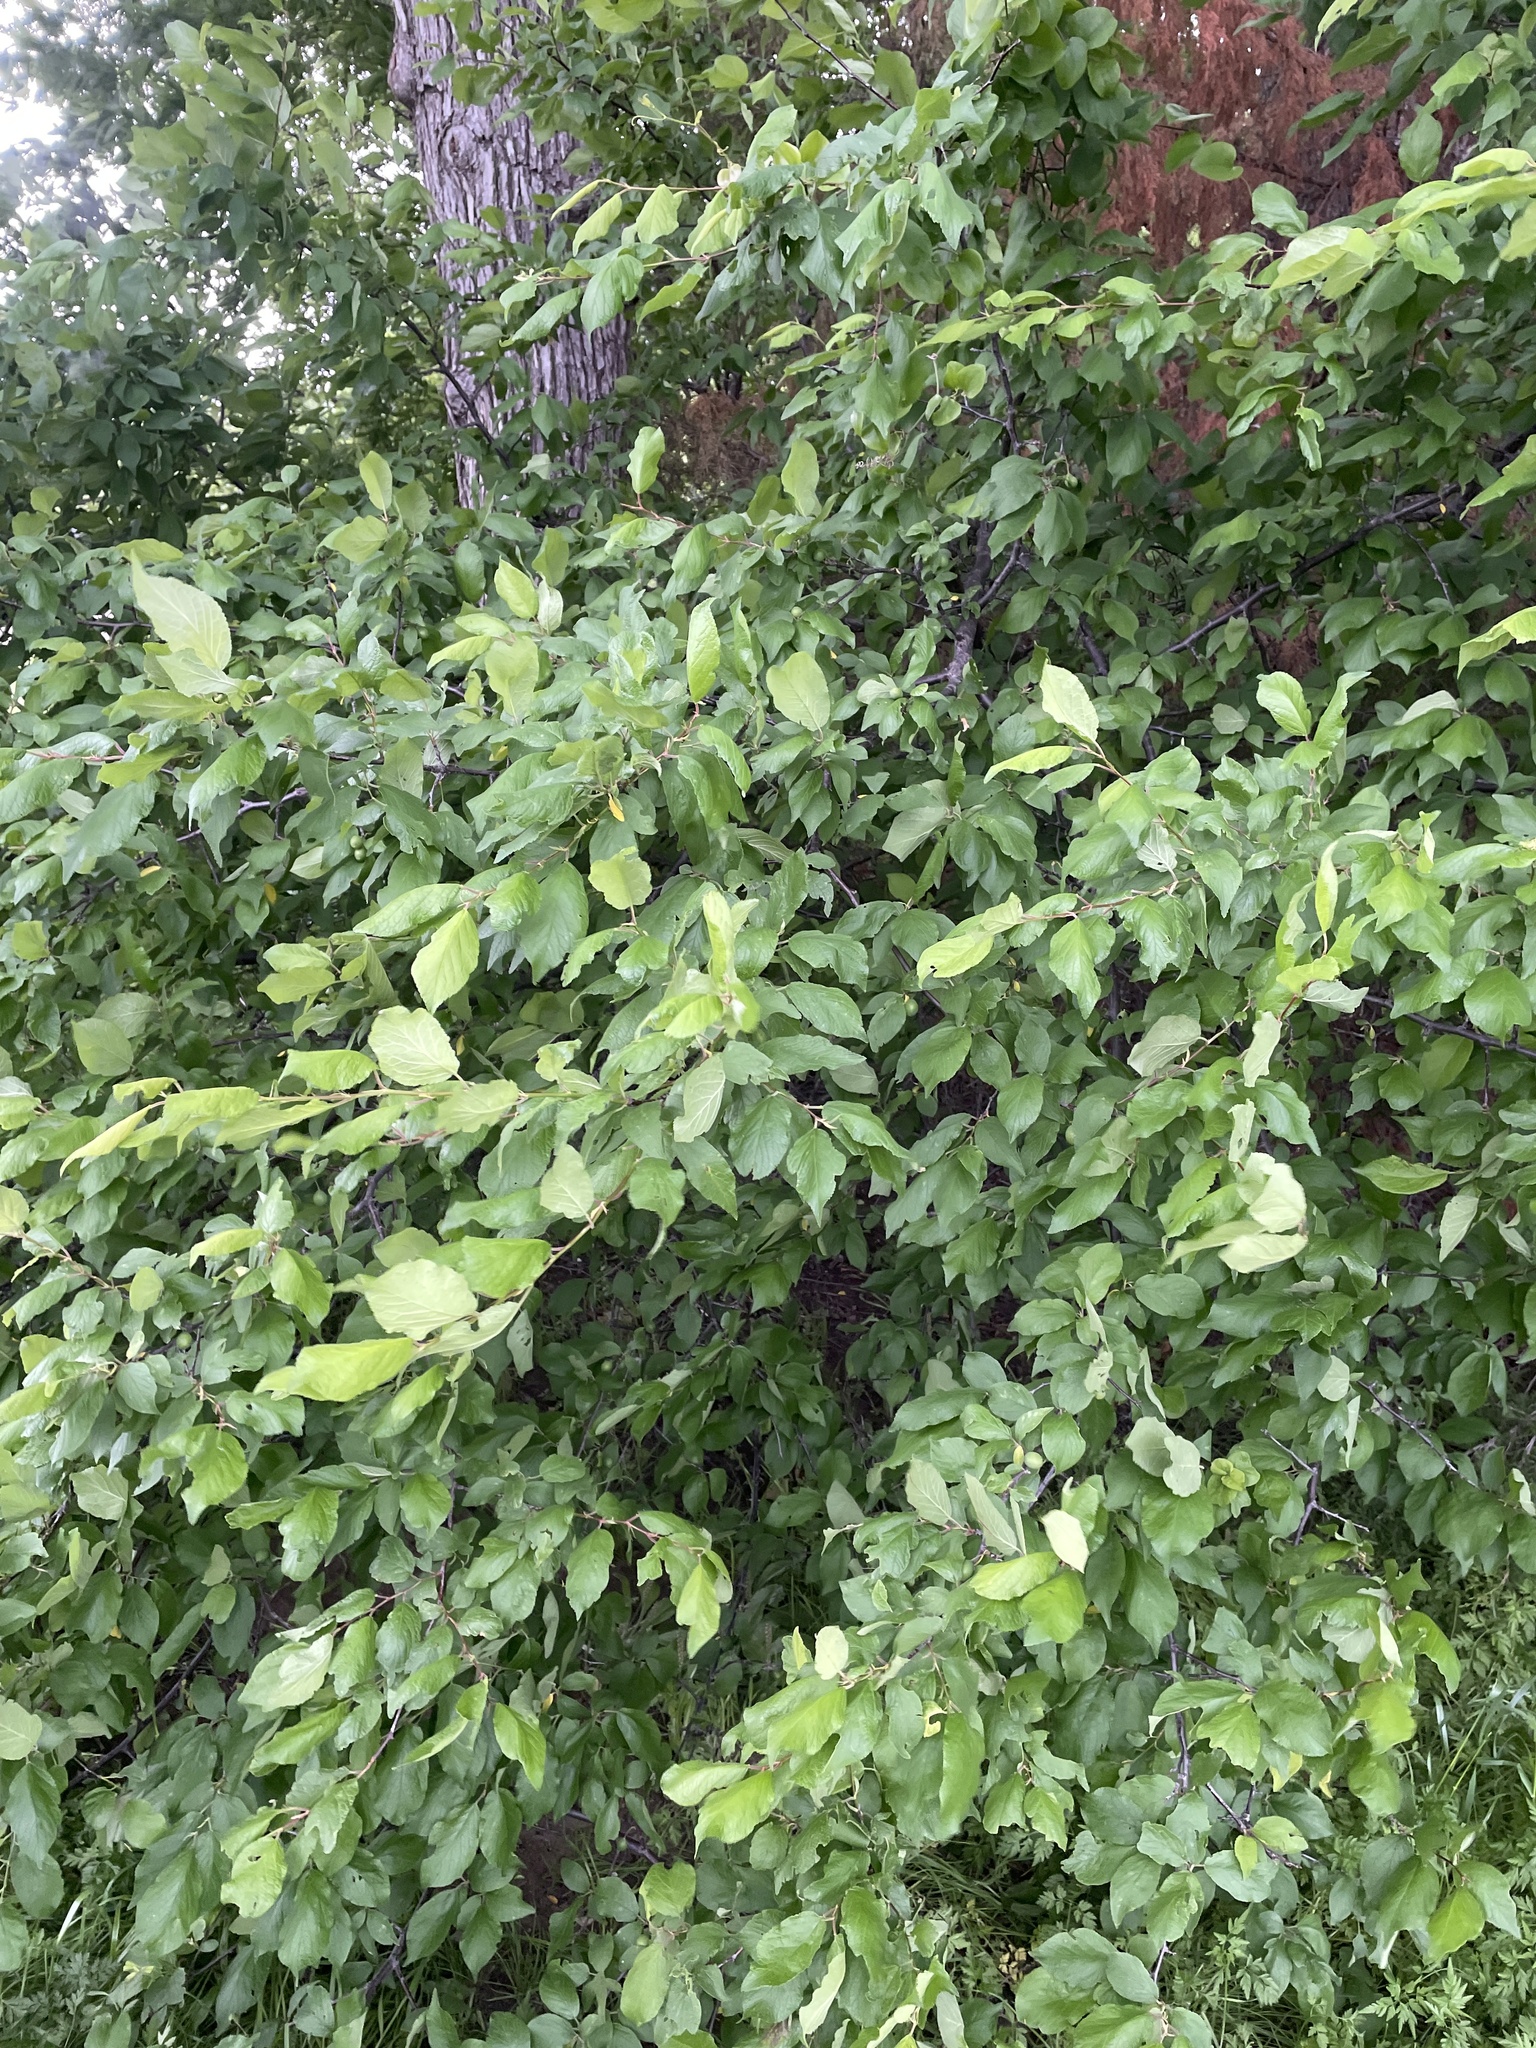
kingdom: Plantae
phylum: Tracheophyta
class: Magnoliopsida
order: Rosales
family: Rosaceae
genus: Prunus
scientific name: Prunus mexicana
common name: Mexican plum
